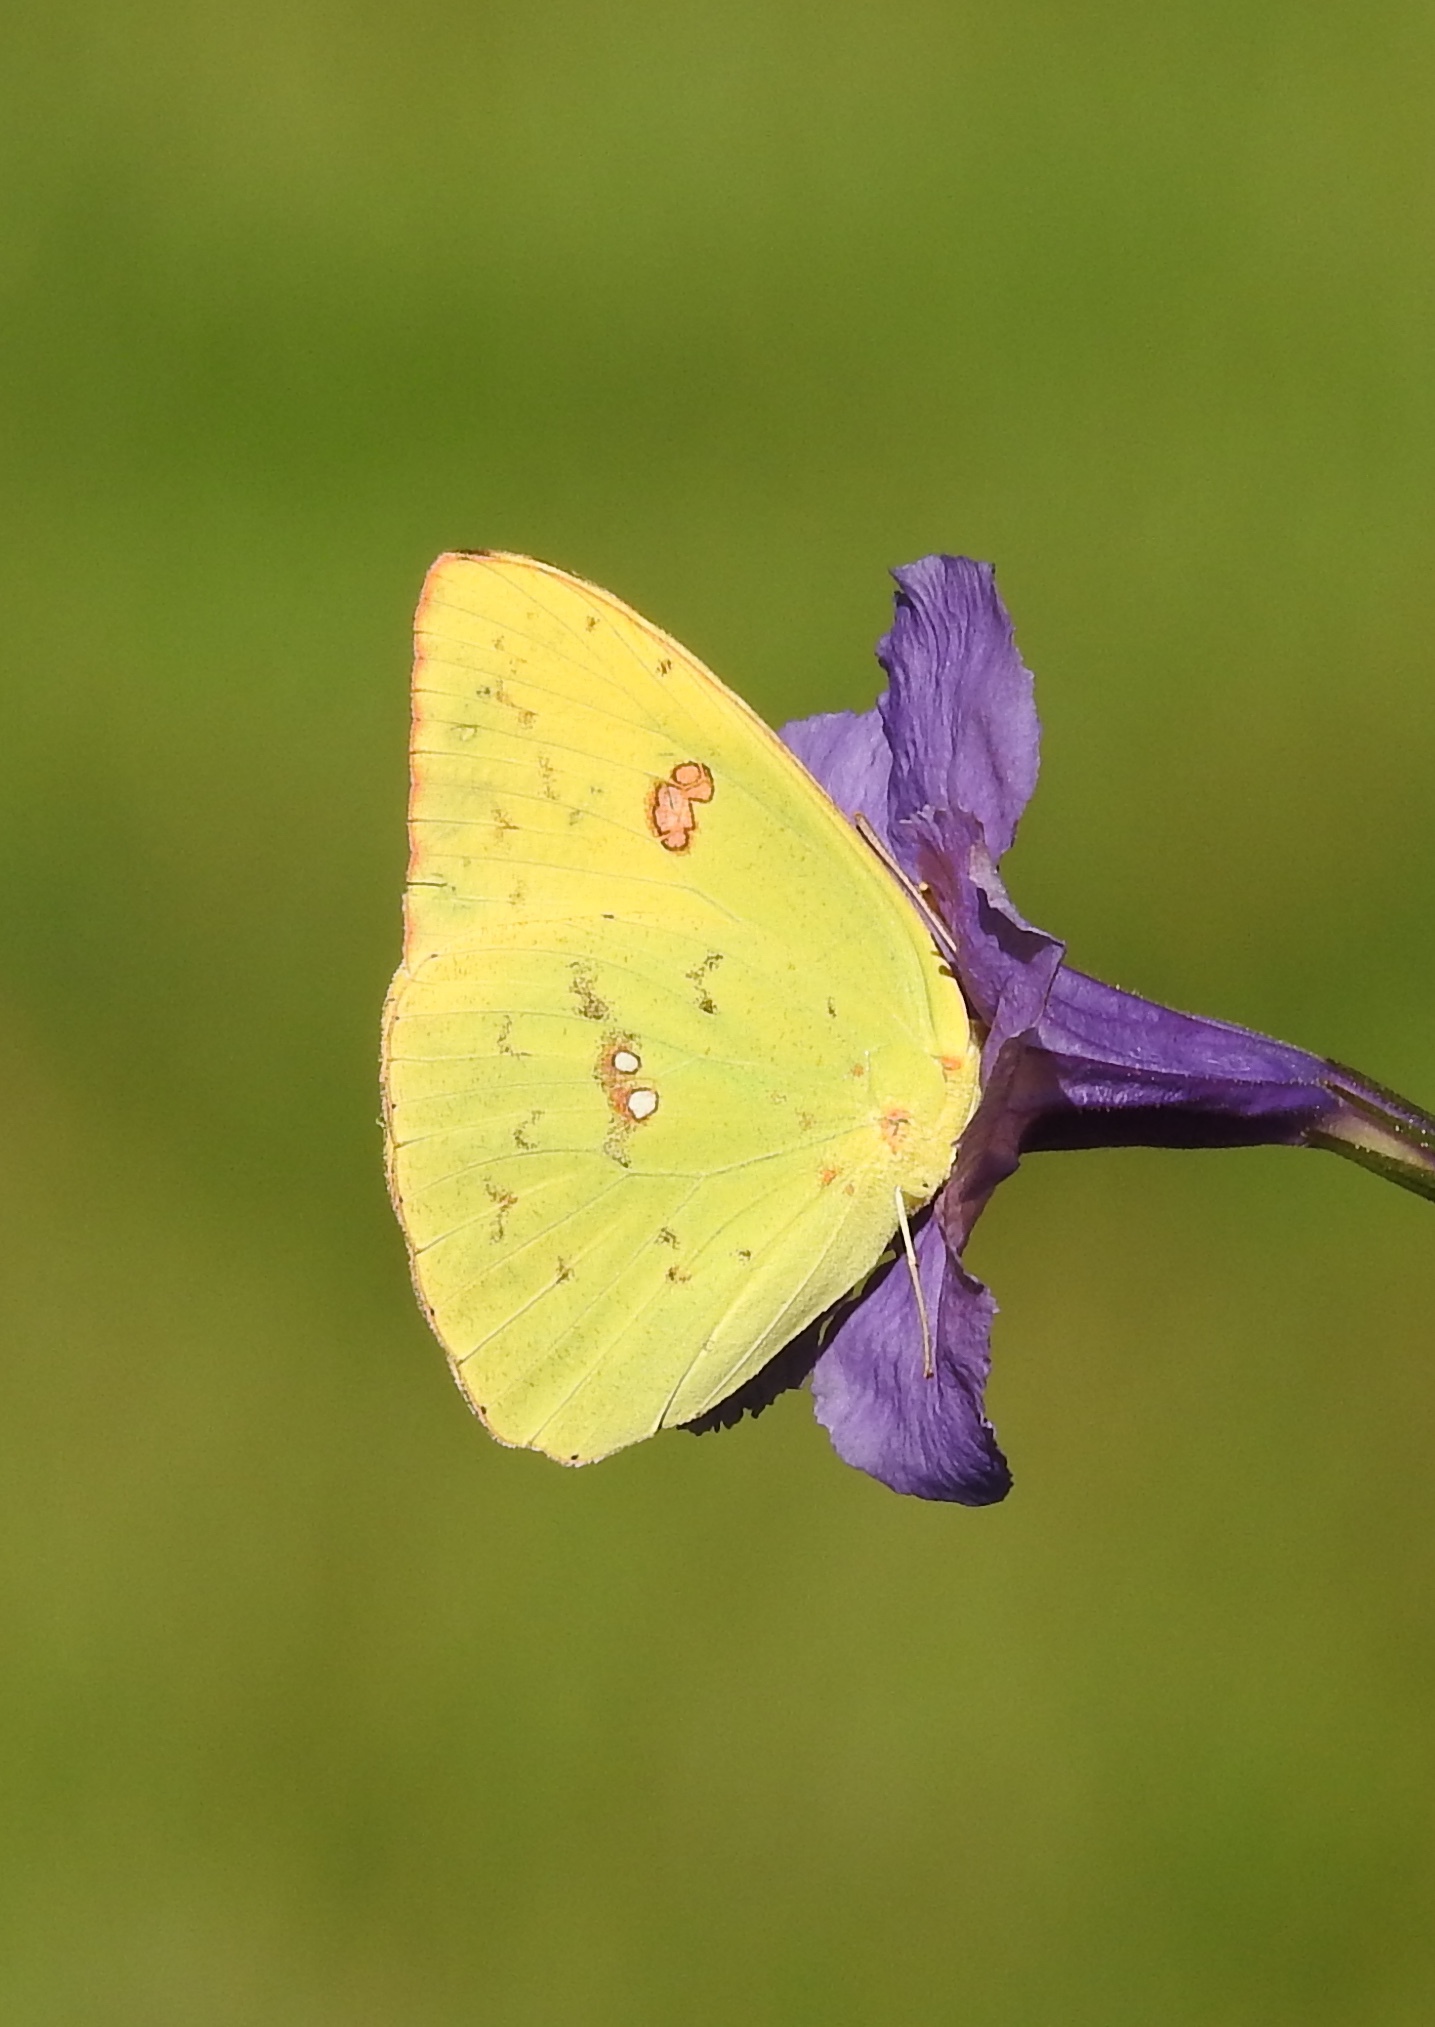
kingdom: Animalia
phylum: Arthropoda
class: Insecta
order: Lepidoptera
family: Pieridae
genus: Phoebis
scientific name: Phoebis sennae
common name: Cloudless sulphur
